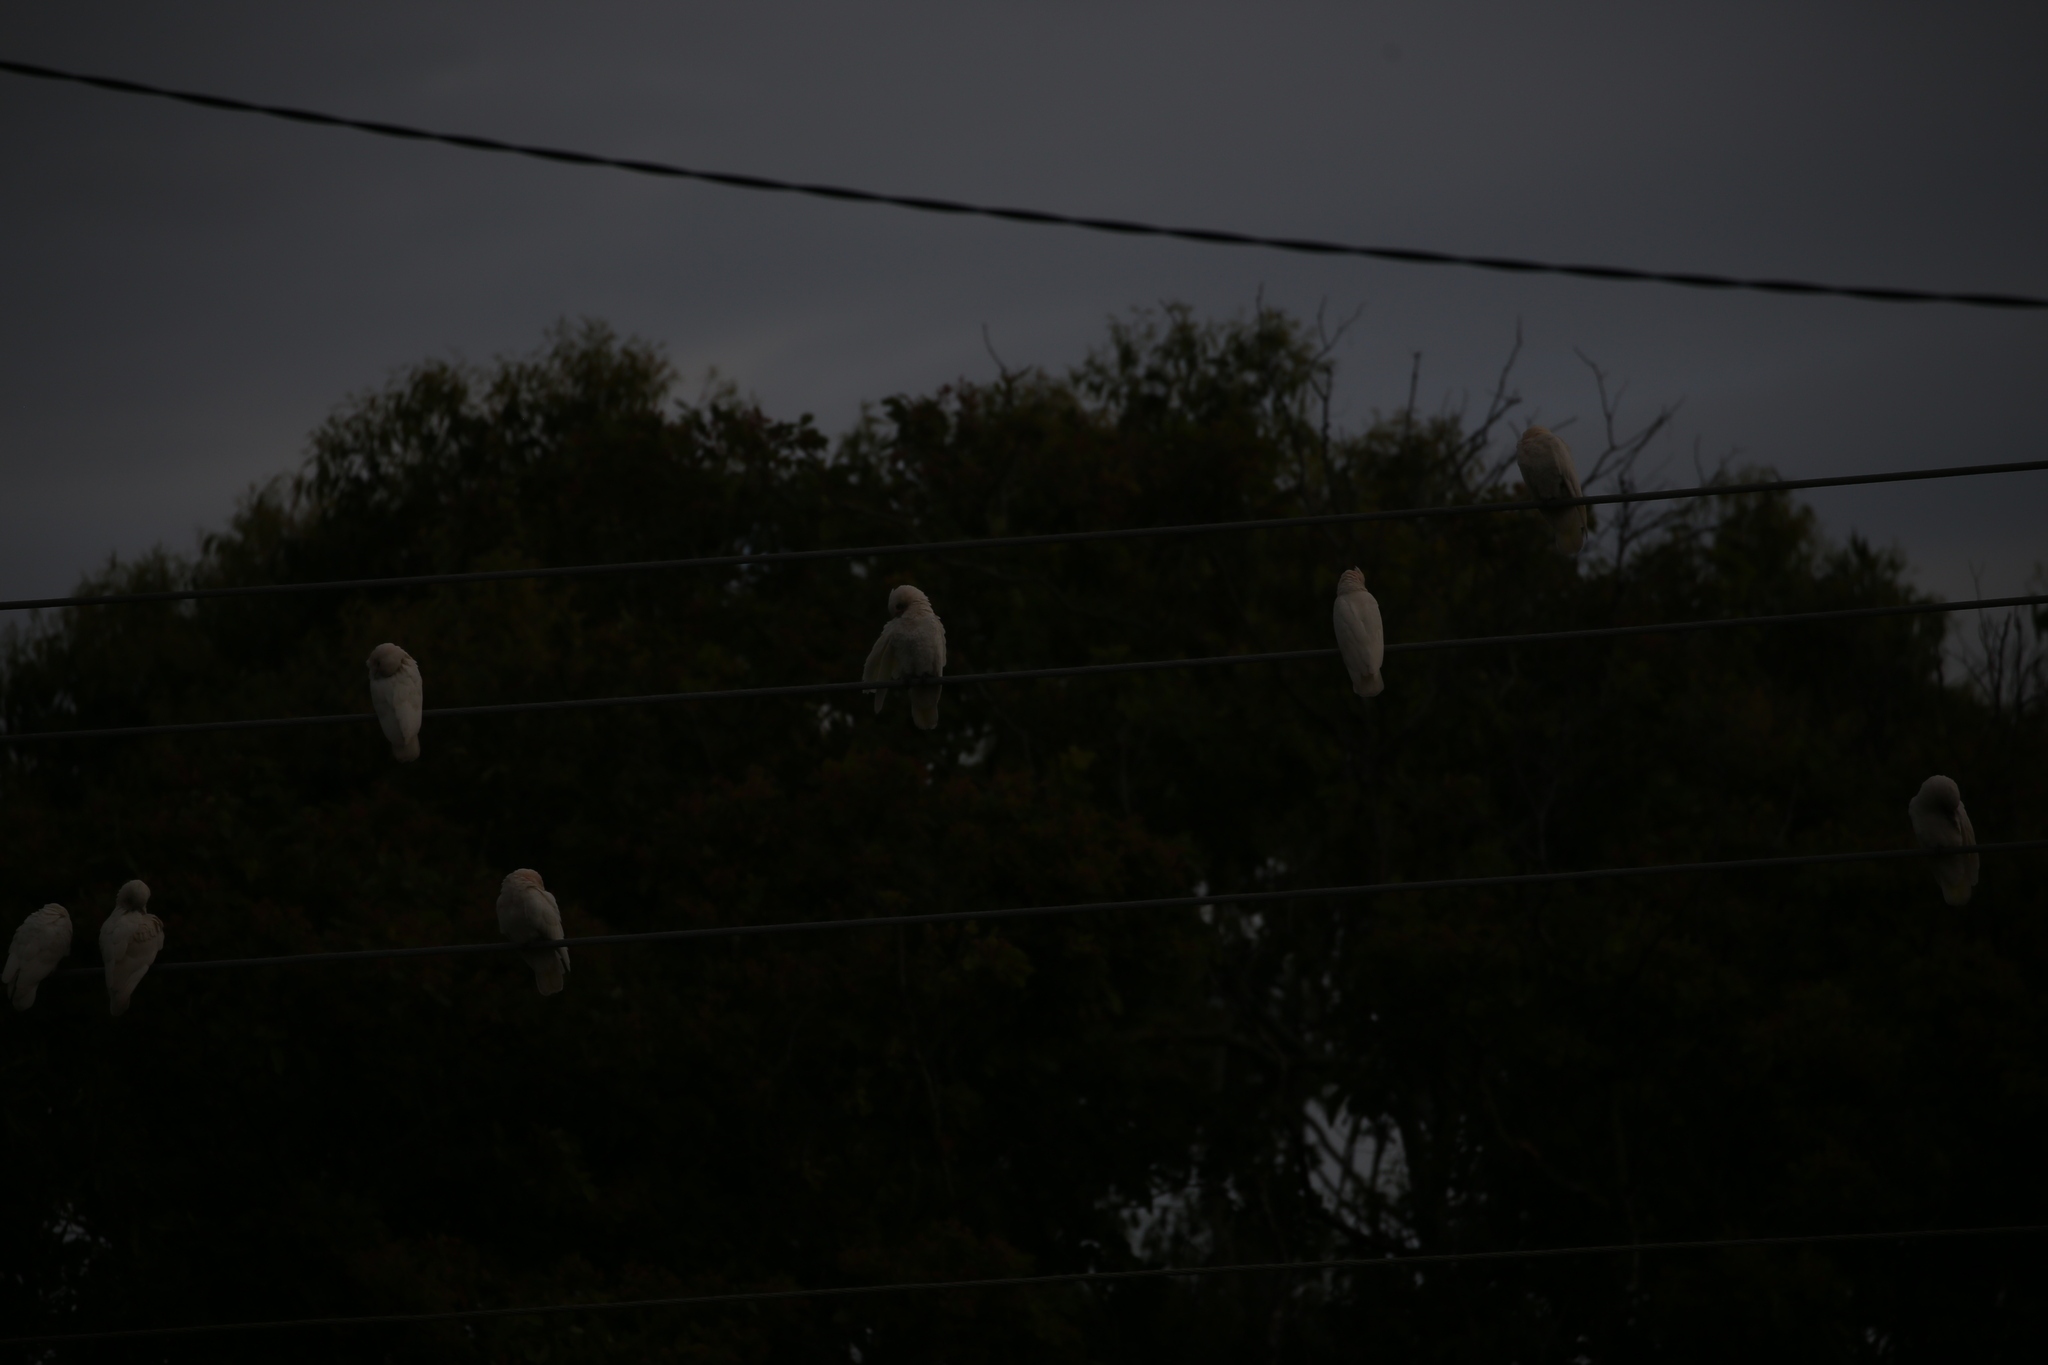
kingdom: Animalia
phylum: Chordata
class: Aves
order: Psittaciformes
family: Psittacidae
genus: Cacatua
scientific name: Cacatua sanguinea
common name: Little corella
